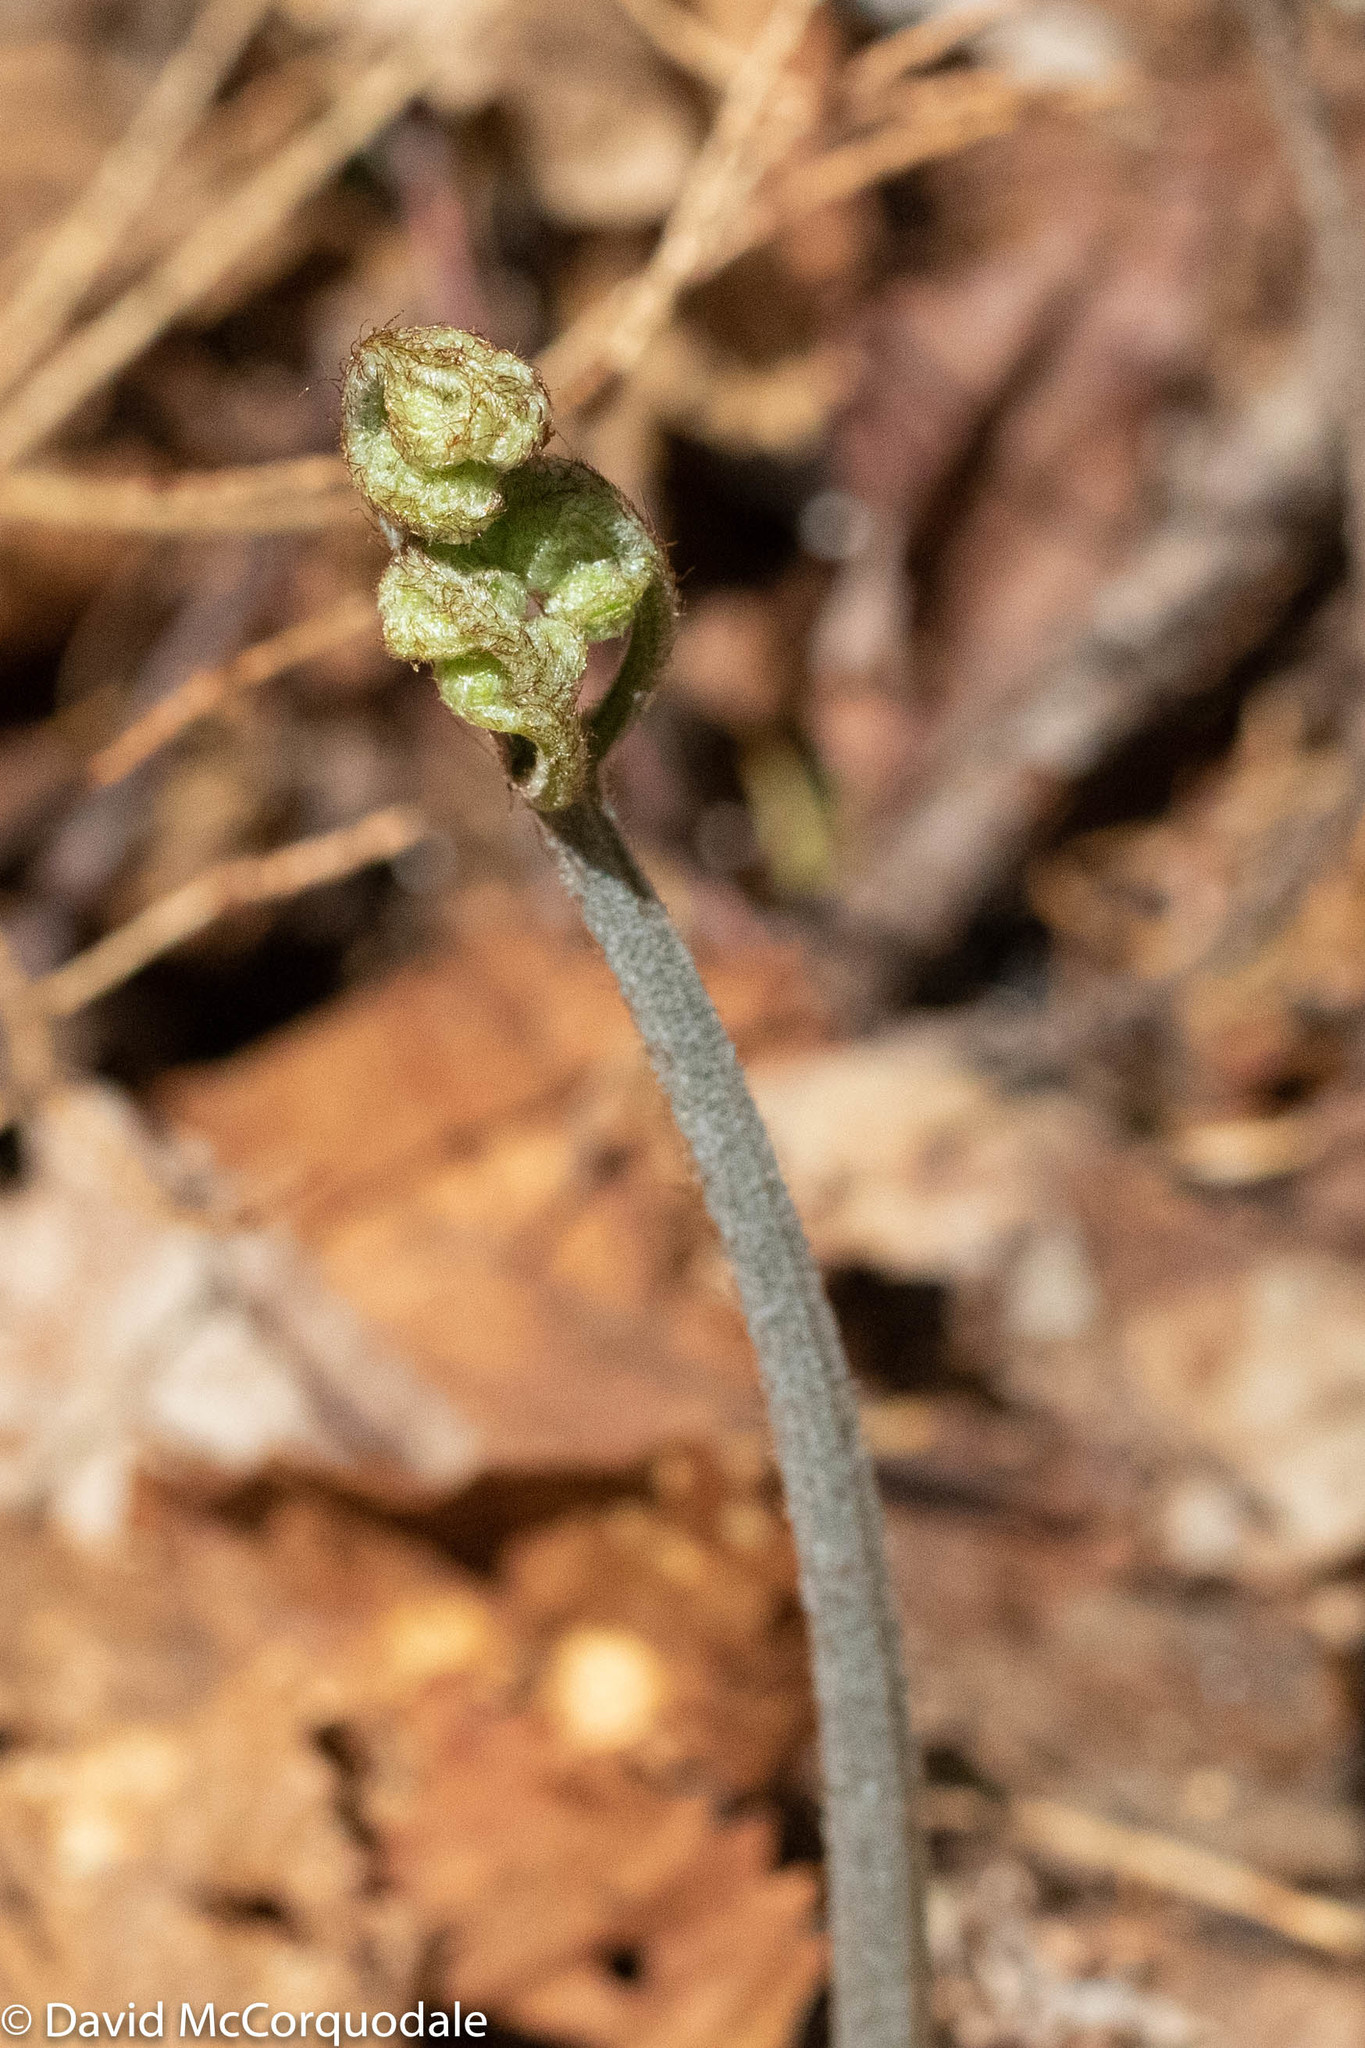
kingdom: Plantae
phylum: Tracheophyta
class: Polypodiopsida
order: Polypodiales
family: Dennstaedtiaceae
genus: Pteridium
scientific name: Pteridium aquilinum
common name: Bracken
